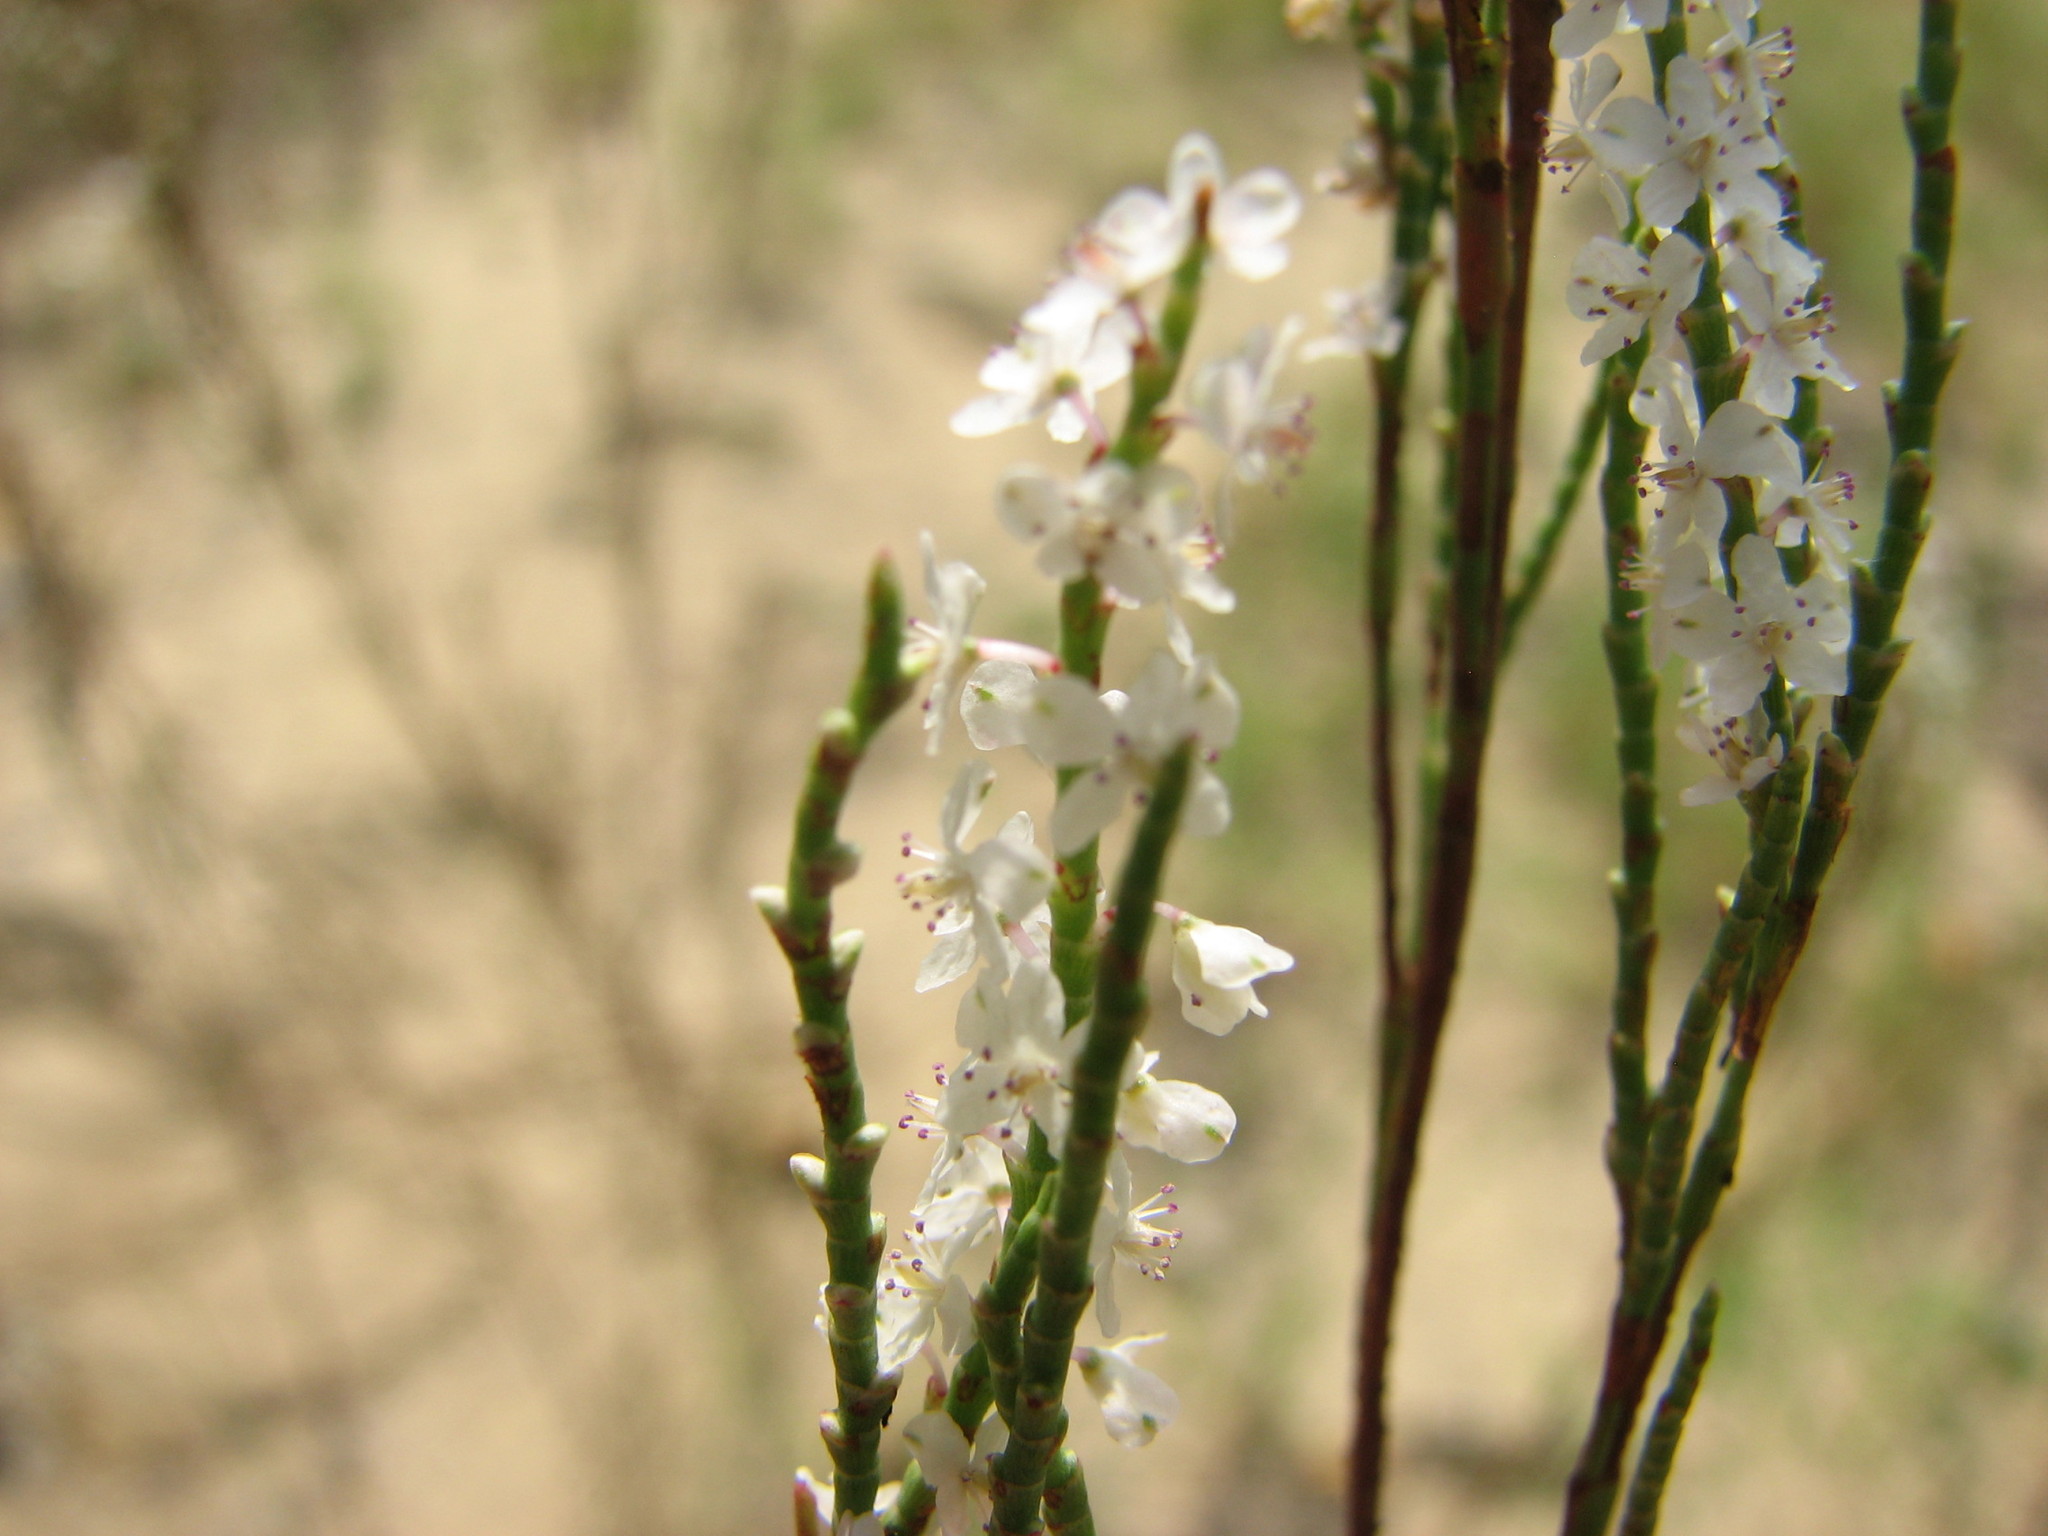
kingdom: Plantae
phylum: Tracheophyta
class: Magnoliopsida
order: Caryophyllales
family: Polygonaceae
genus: Polygonella
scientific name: Polygonella articulata
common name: Coastal jointweed
